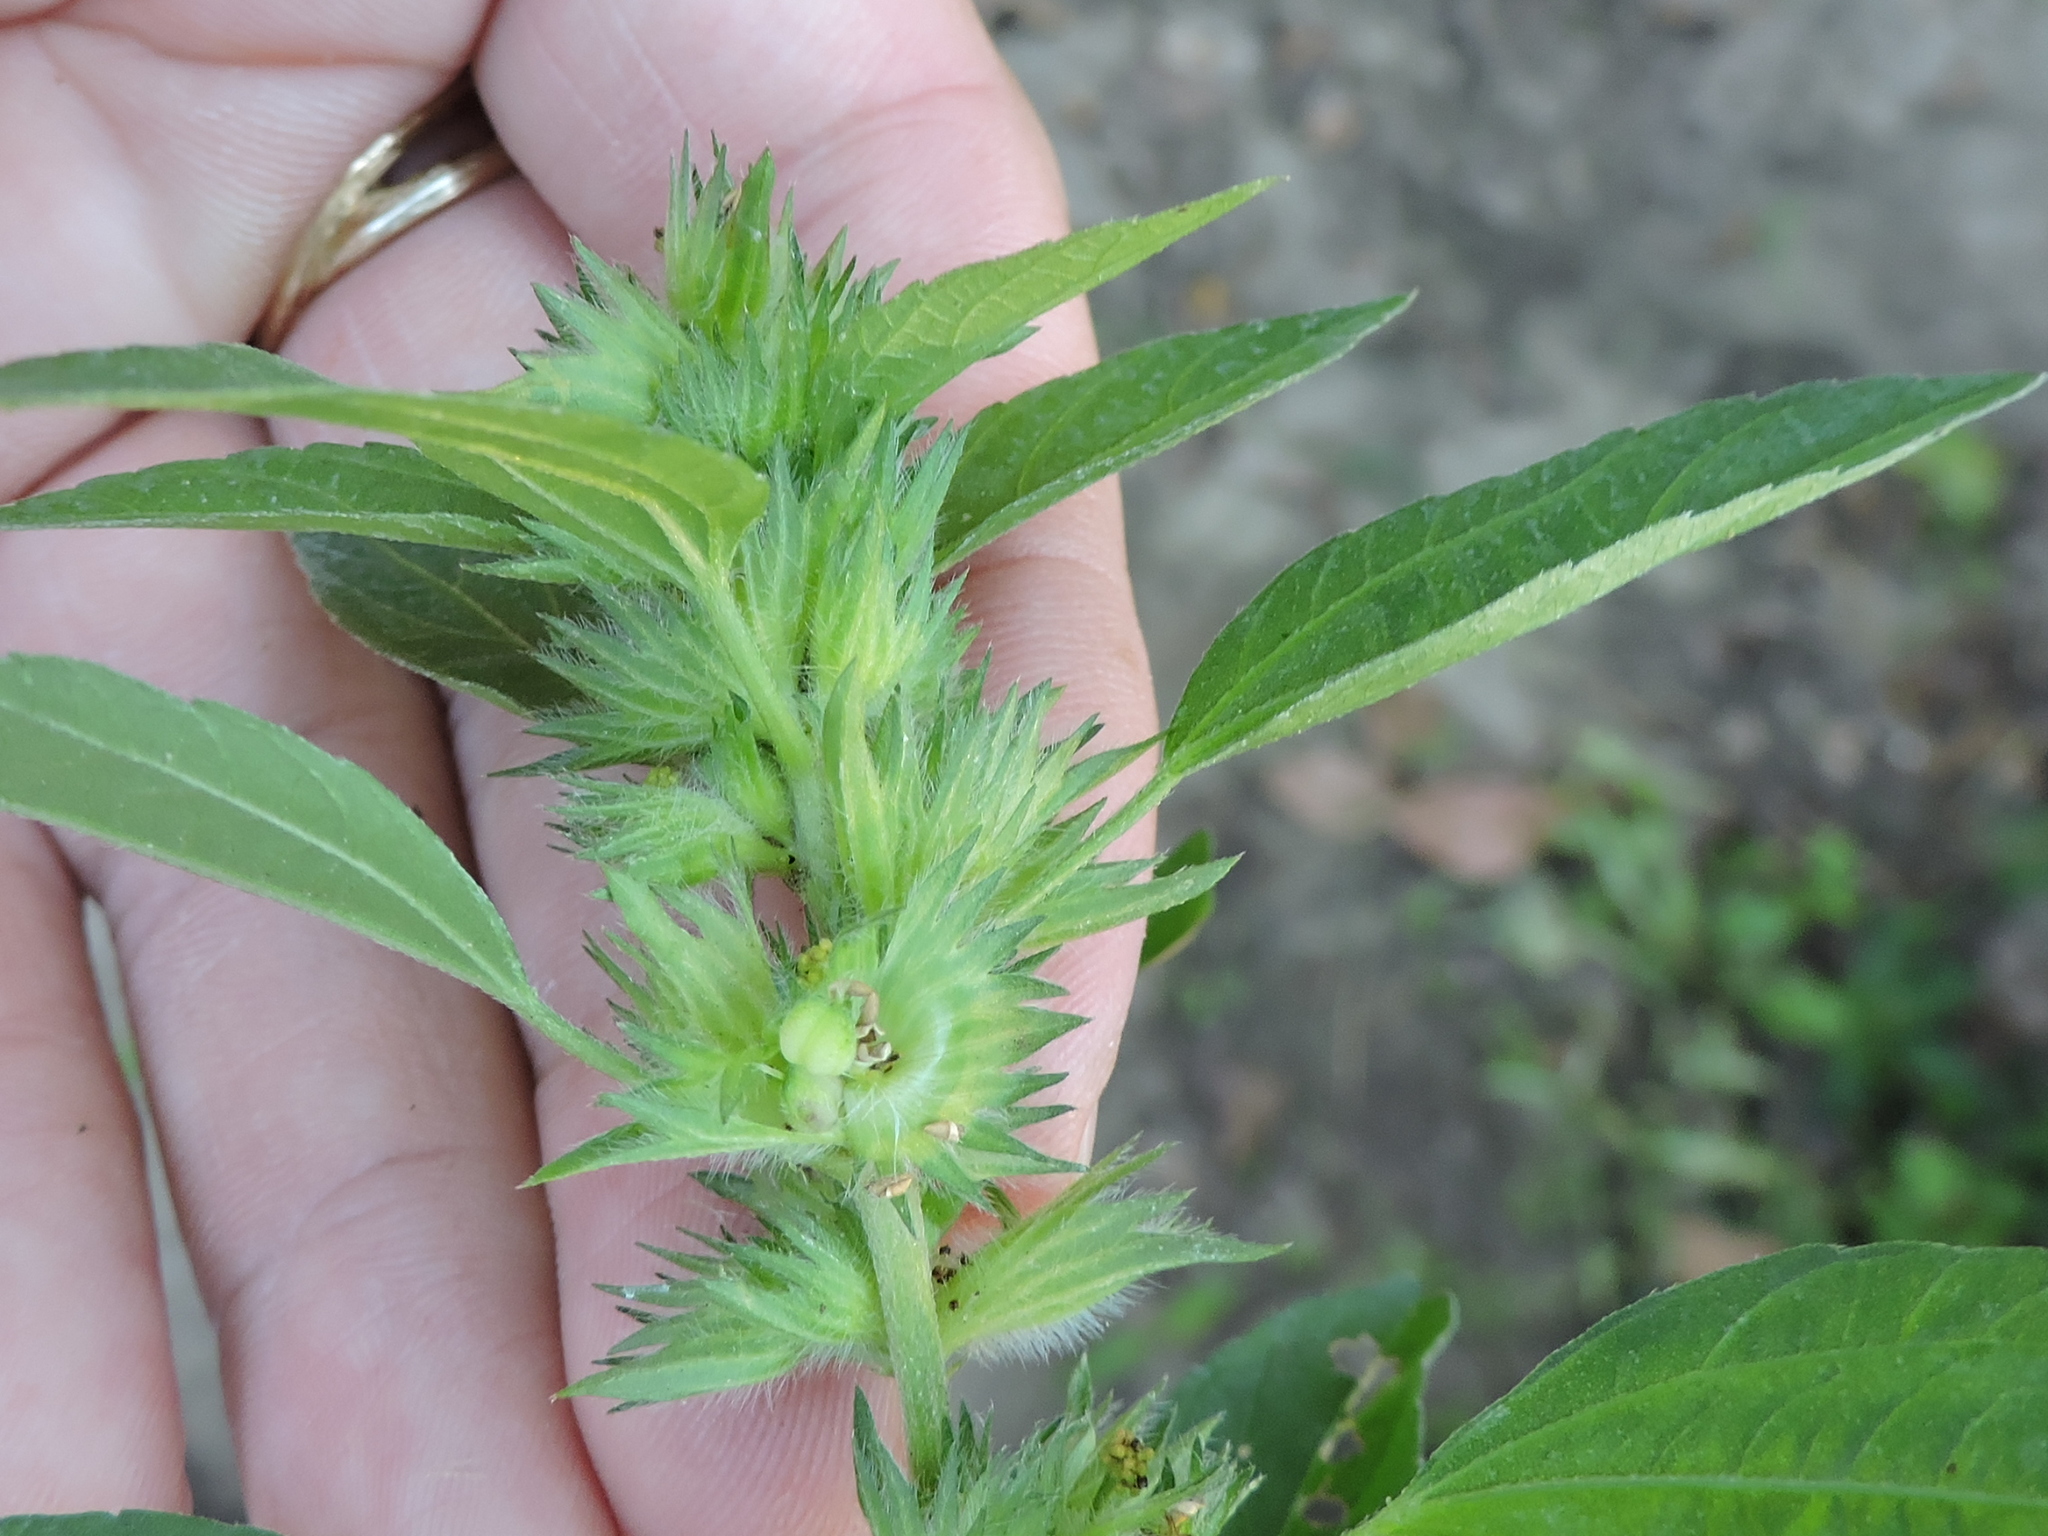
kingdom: Plantae
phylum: Tracheophyta
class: Magnoliopsida
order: Malpighiales
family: Euphorbiaceae
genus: Acalypha
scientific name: Acalypha virginica
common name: Virginia copperleaf
